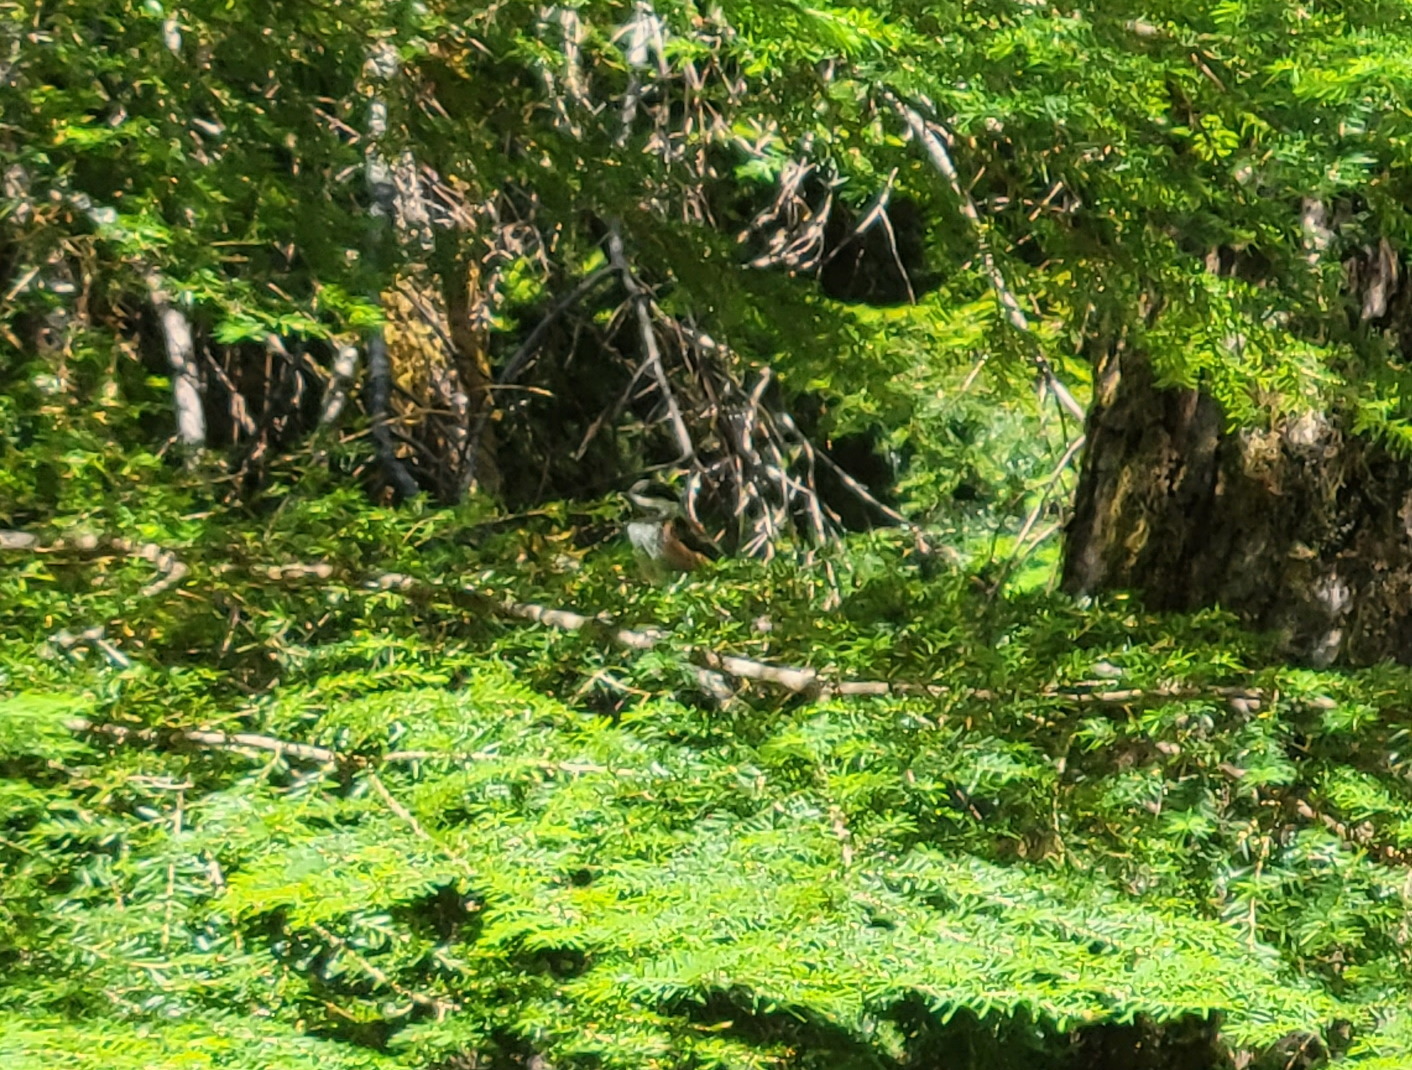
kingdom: Animalia
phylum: Chordata
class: Aves
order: Passeriformes
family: Paridae
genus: Poecile
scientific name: Poecile rufescens
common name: Chestnut-backed chickadee
